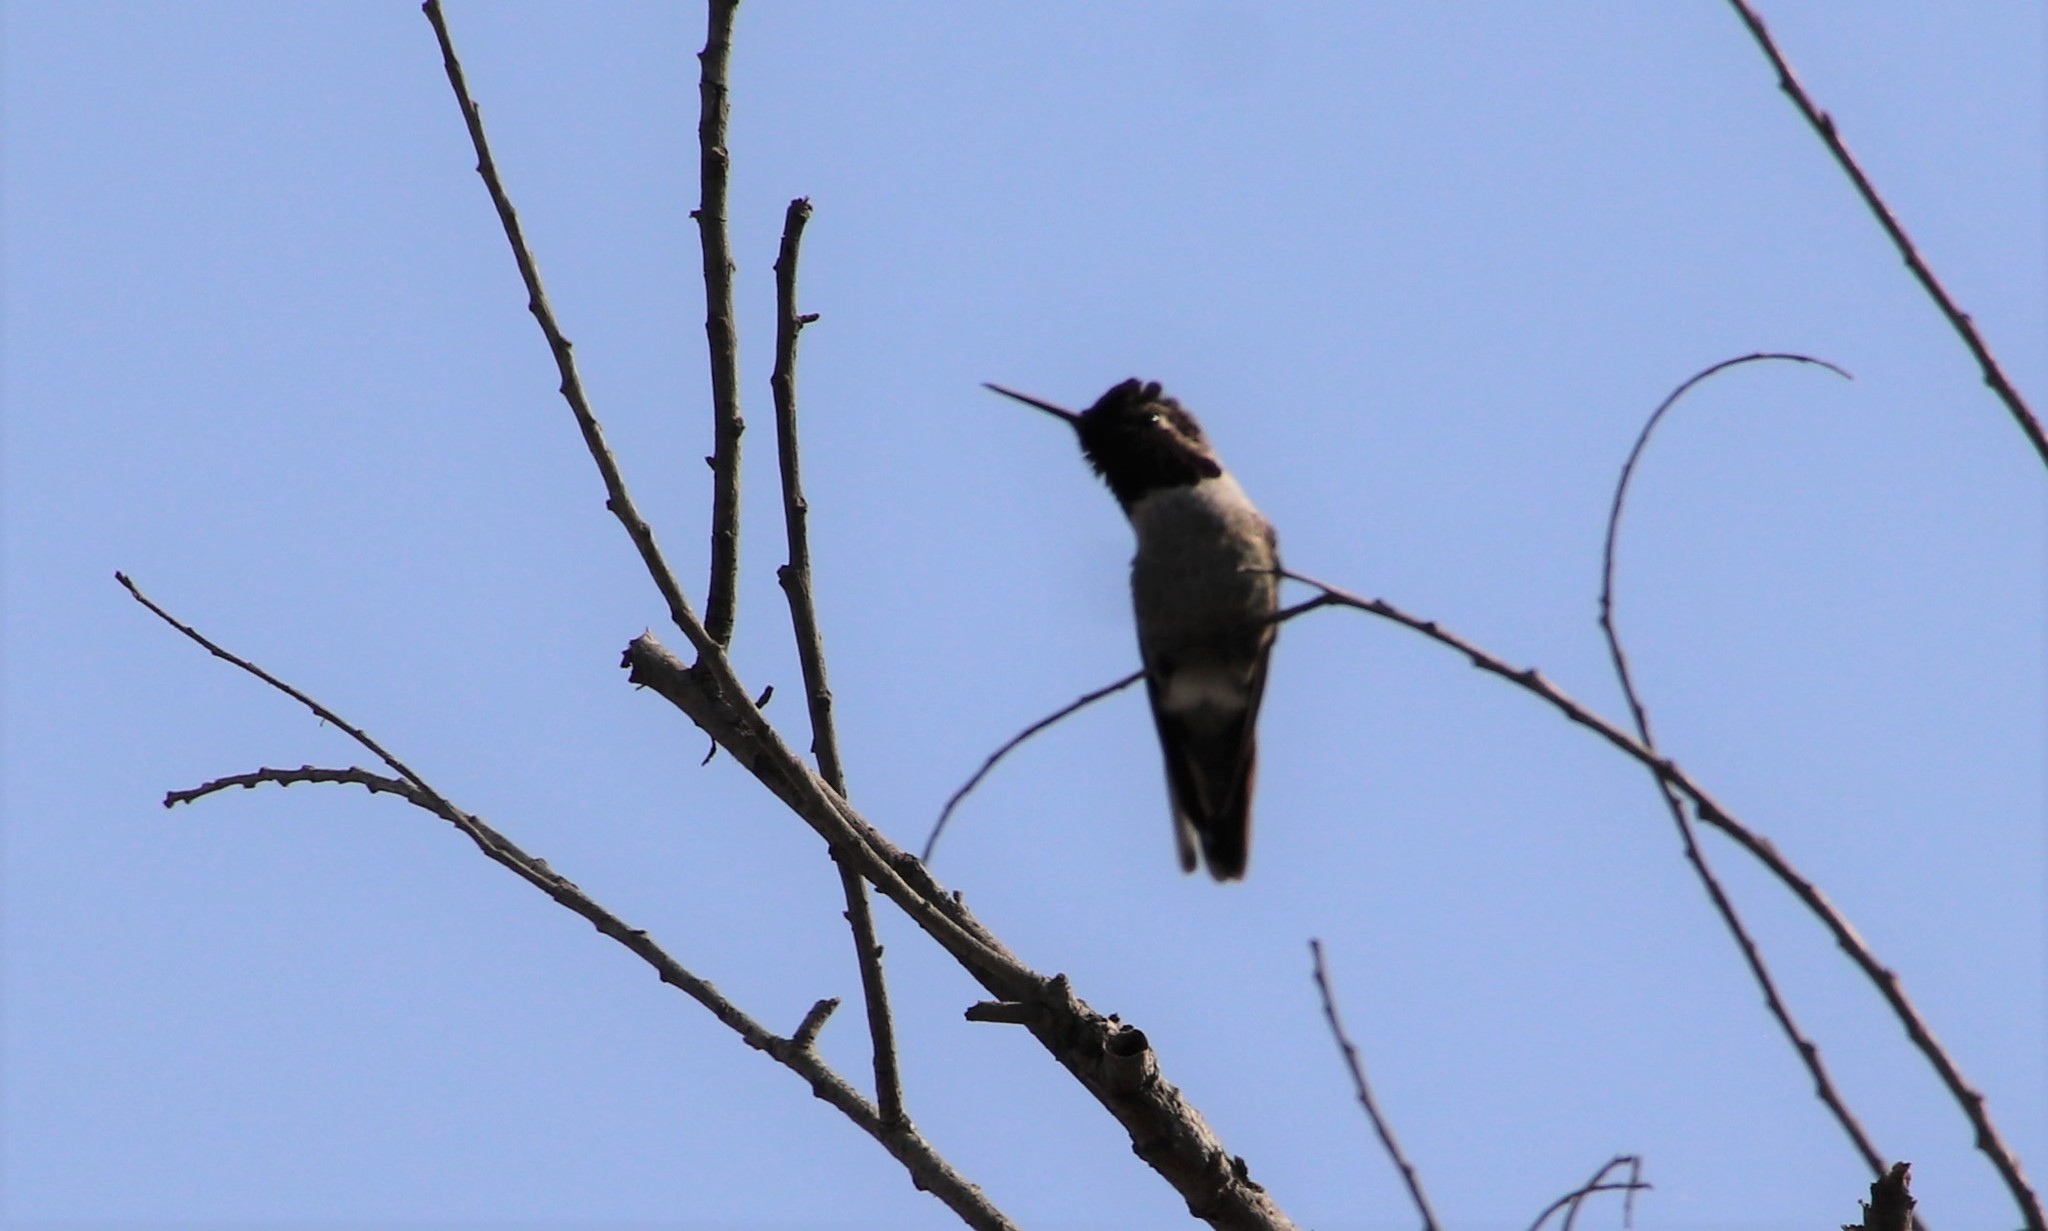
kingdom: Animalia
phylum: Chordata
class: Aves
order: Apodiformes
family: Trochilidae
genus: Calypte
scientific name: Calypte anna
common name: Anna's hummingbird
